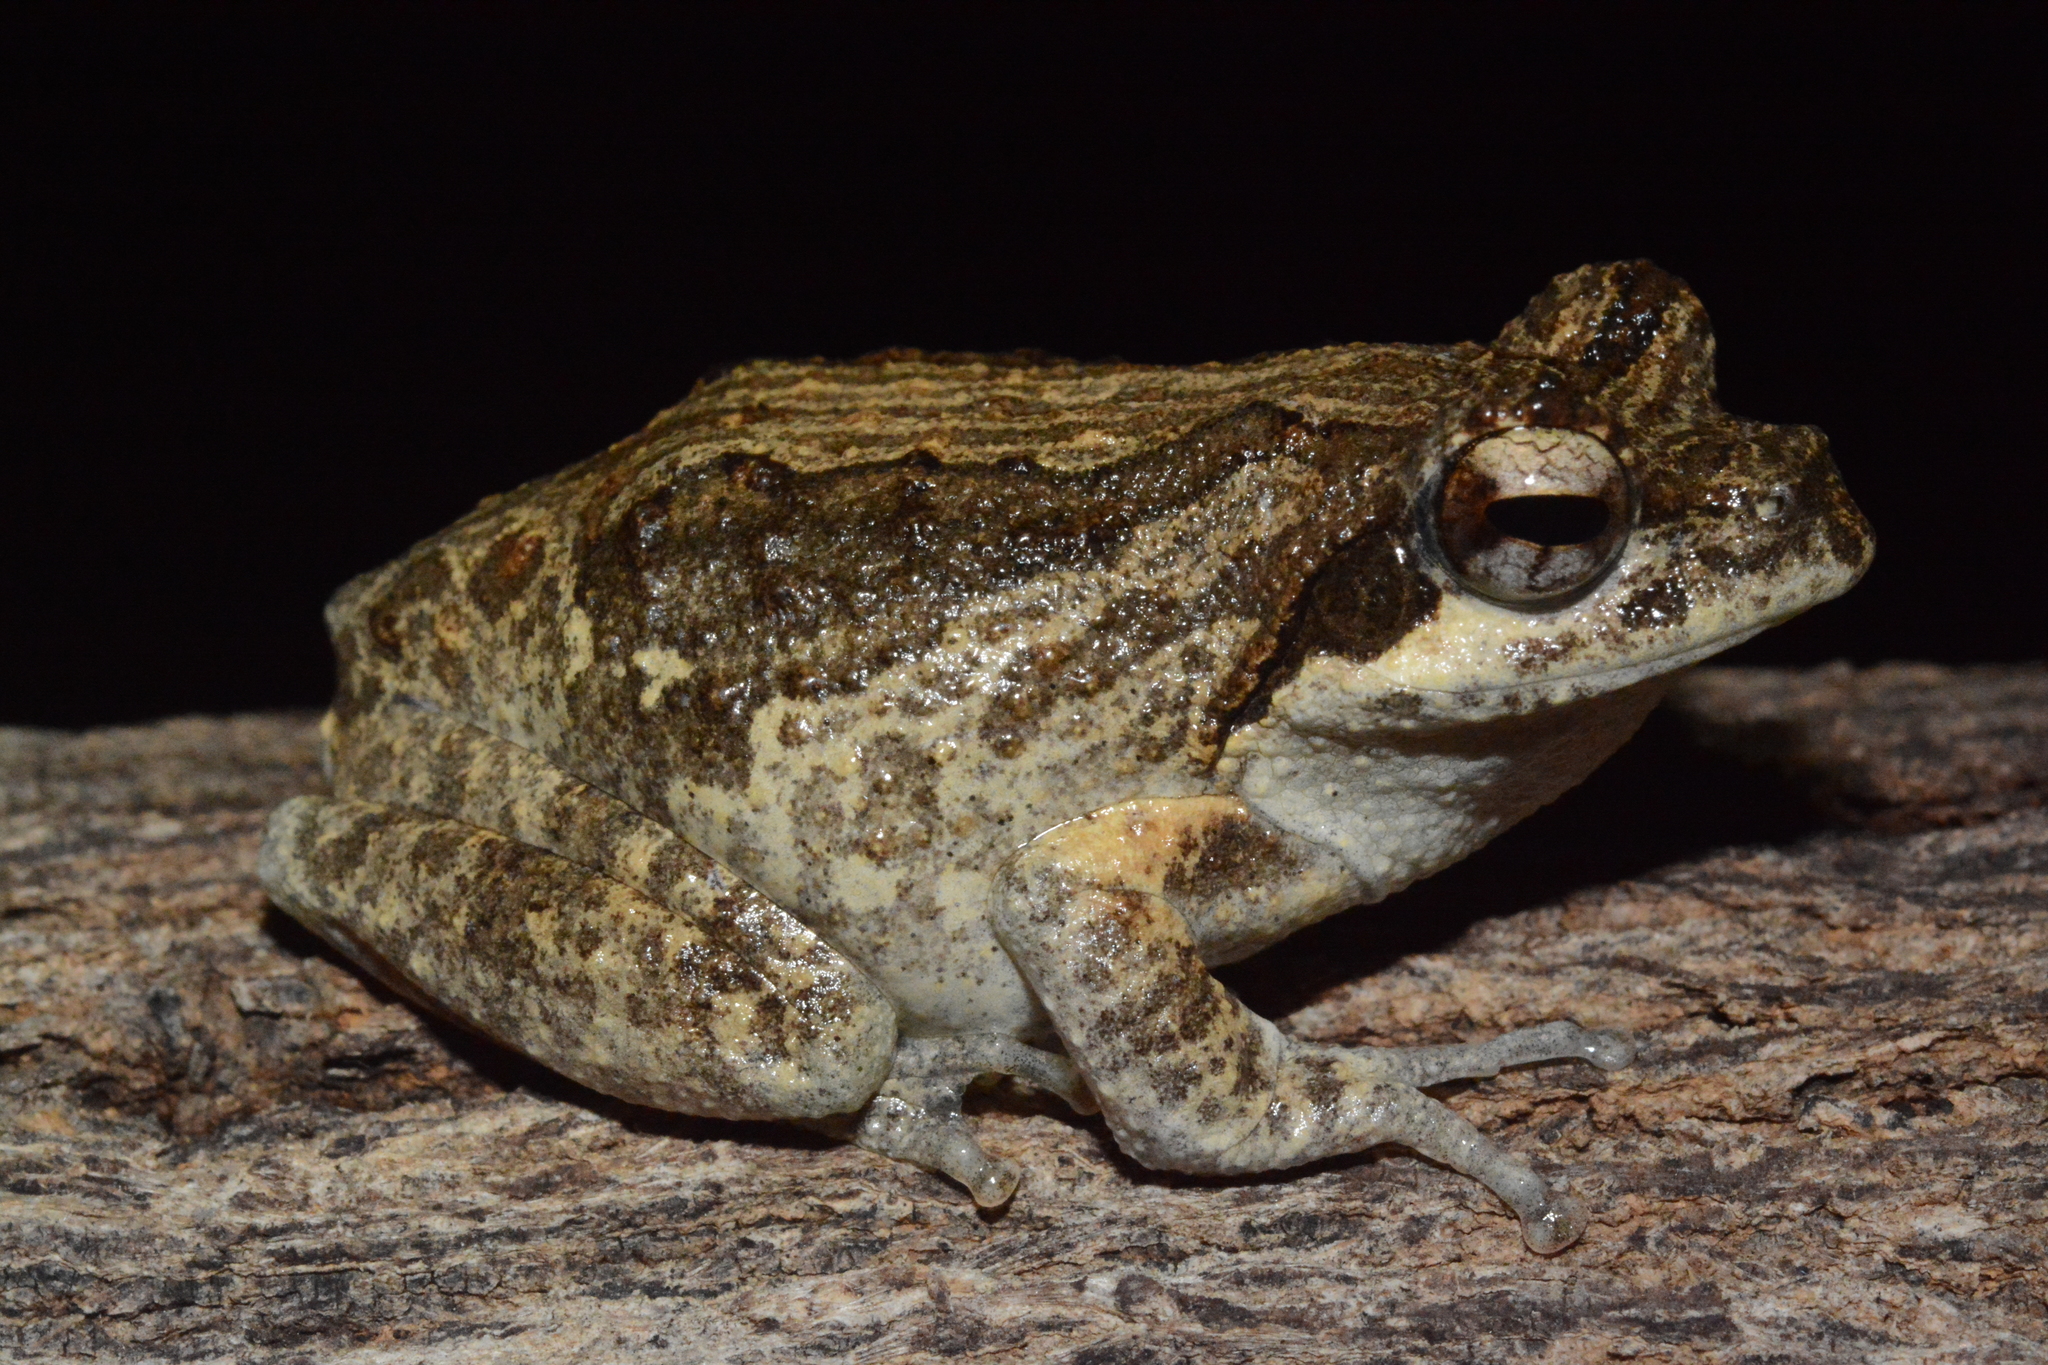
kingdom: Animalia
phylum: Chordata
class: Amphibia
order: Anura
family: Rhacophoridae
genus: Chiromantis
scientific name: Chiromantis petersii
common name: Central foam-nest tree frog
